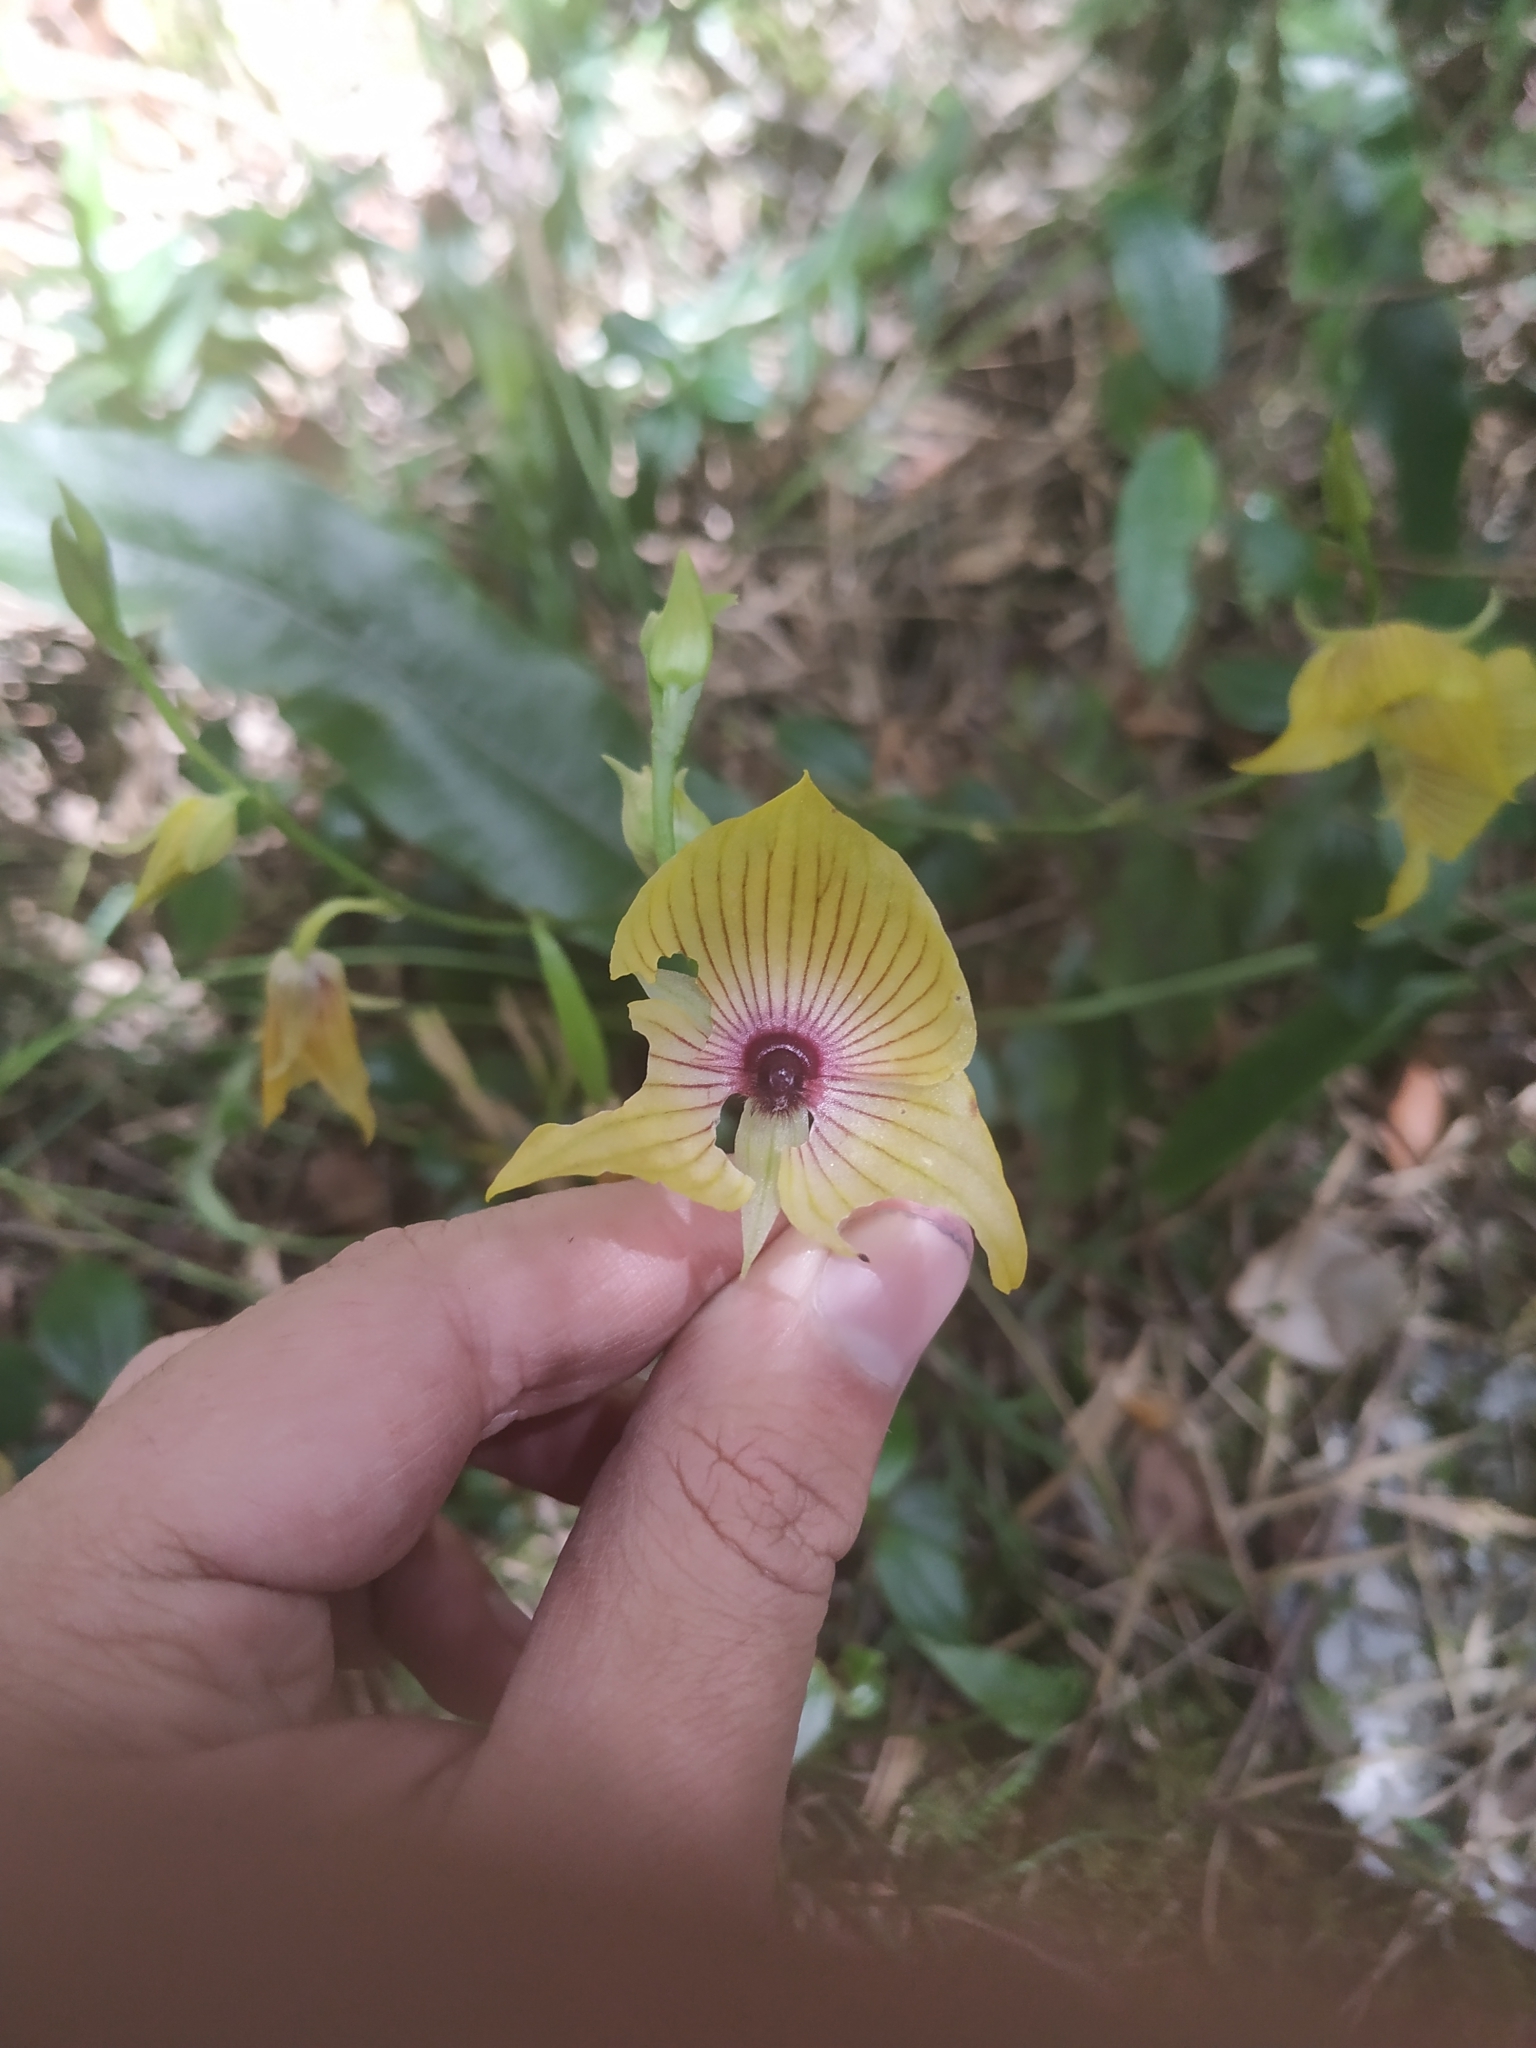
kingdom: Plantae
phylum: Tracheophyta
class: Liliopsida
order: Asparagales
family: Orchidaceae
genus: Telipogon
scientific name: Telipogon nervosus
